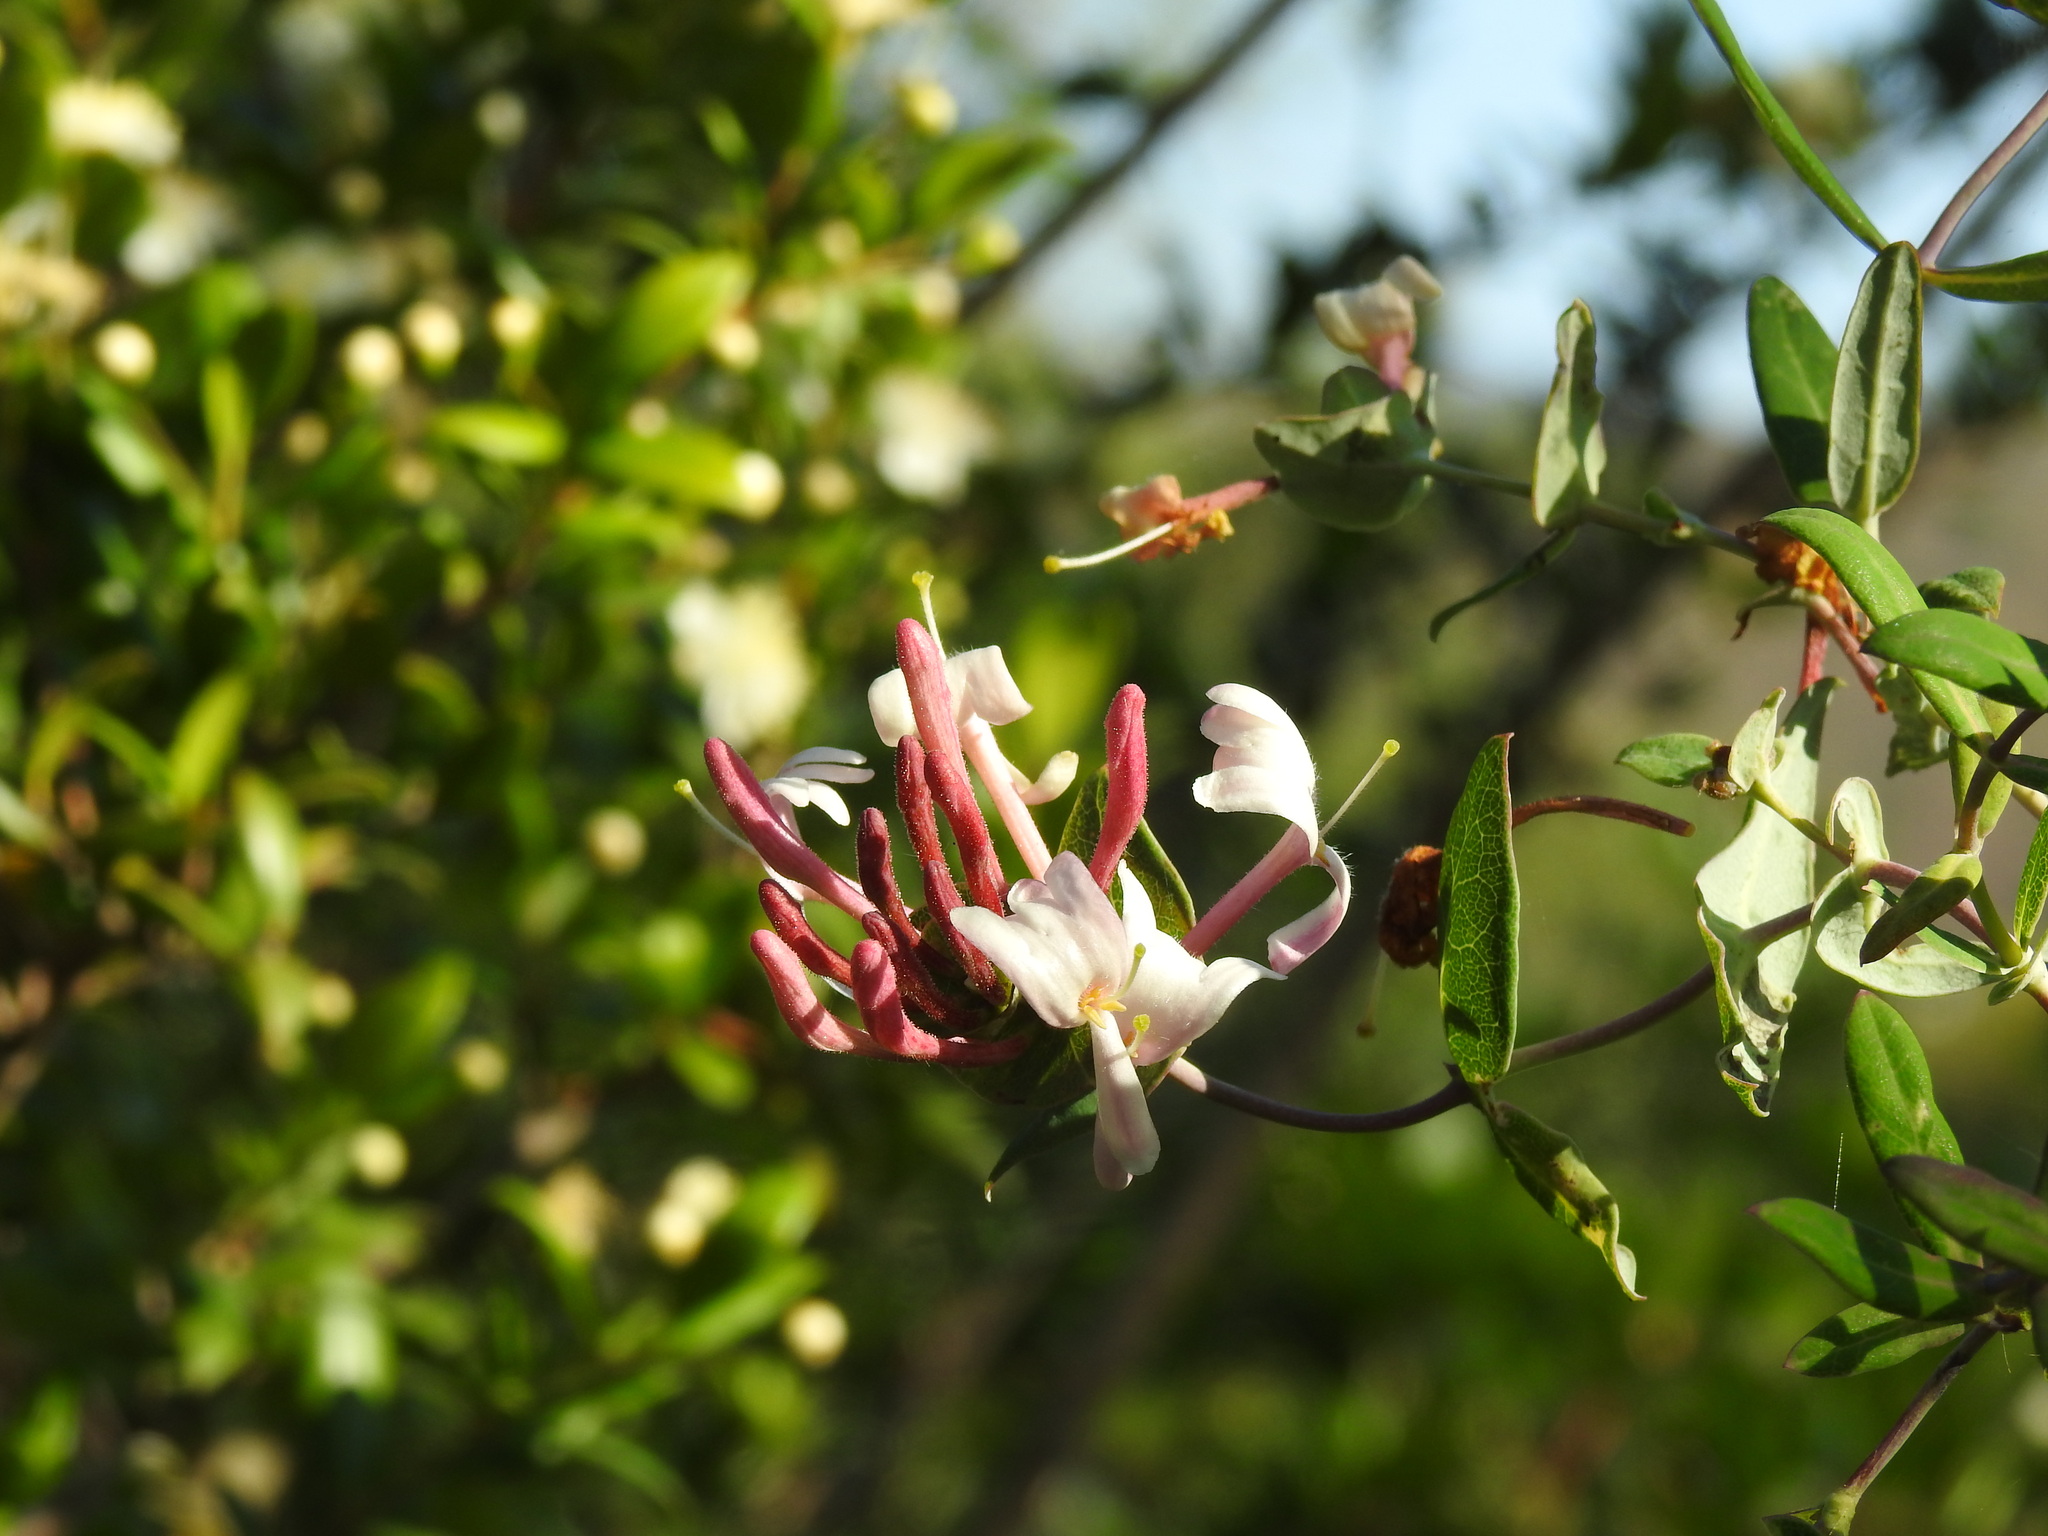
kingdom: Plantae
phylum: Tracheophyta
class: Magnoliopsida
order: Dipsacales
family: Caprifoliaceae
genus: Lonicera
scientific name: Lonicera implexa
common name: Minorca honeysuckle
